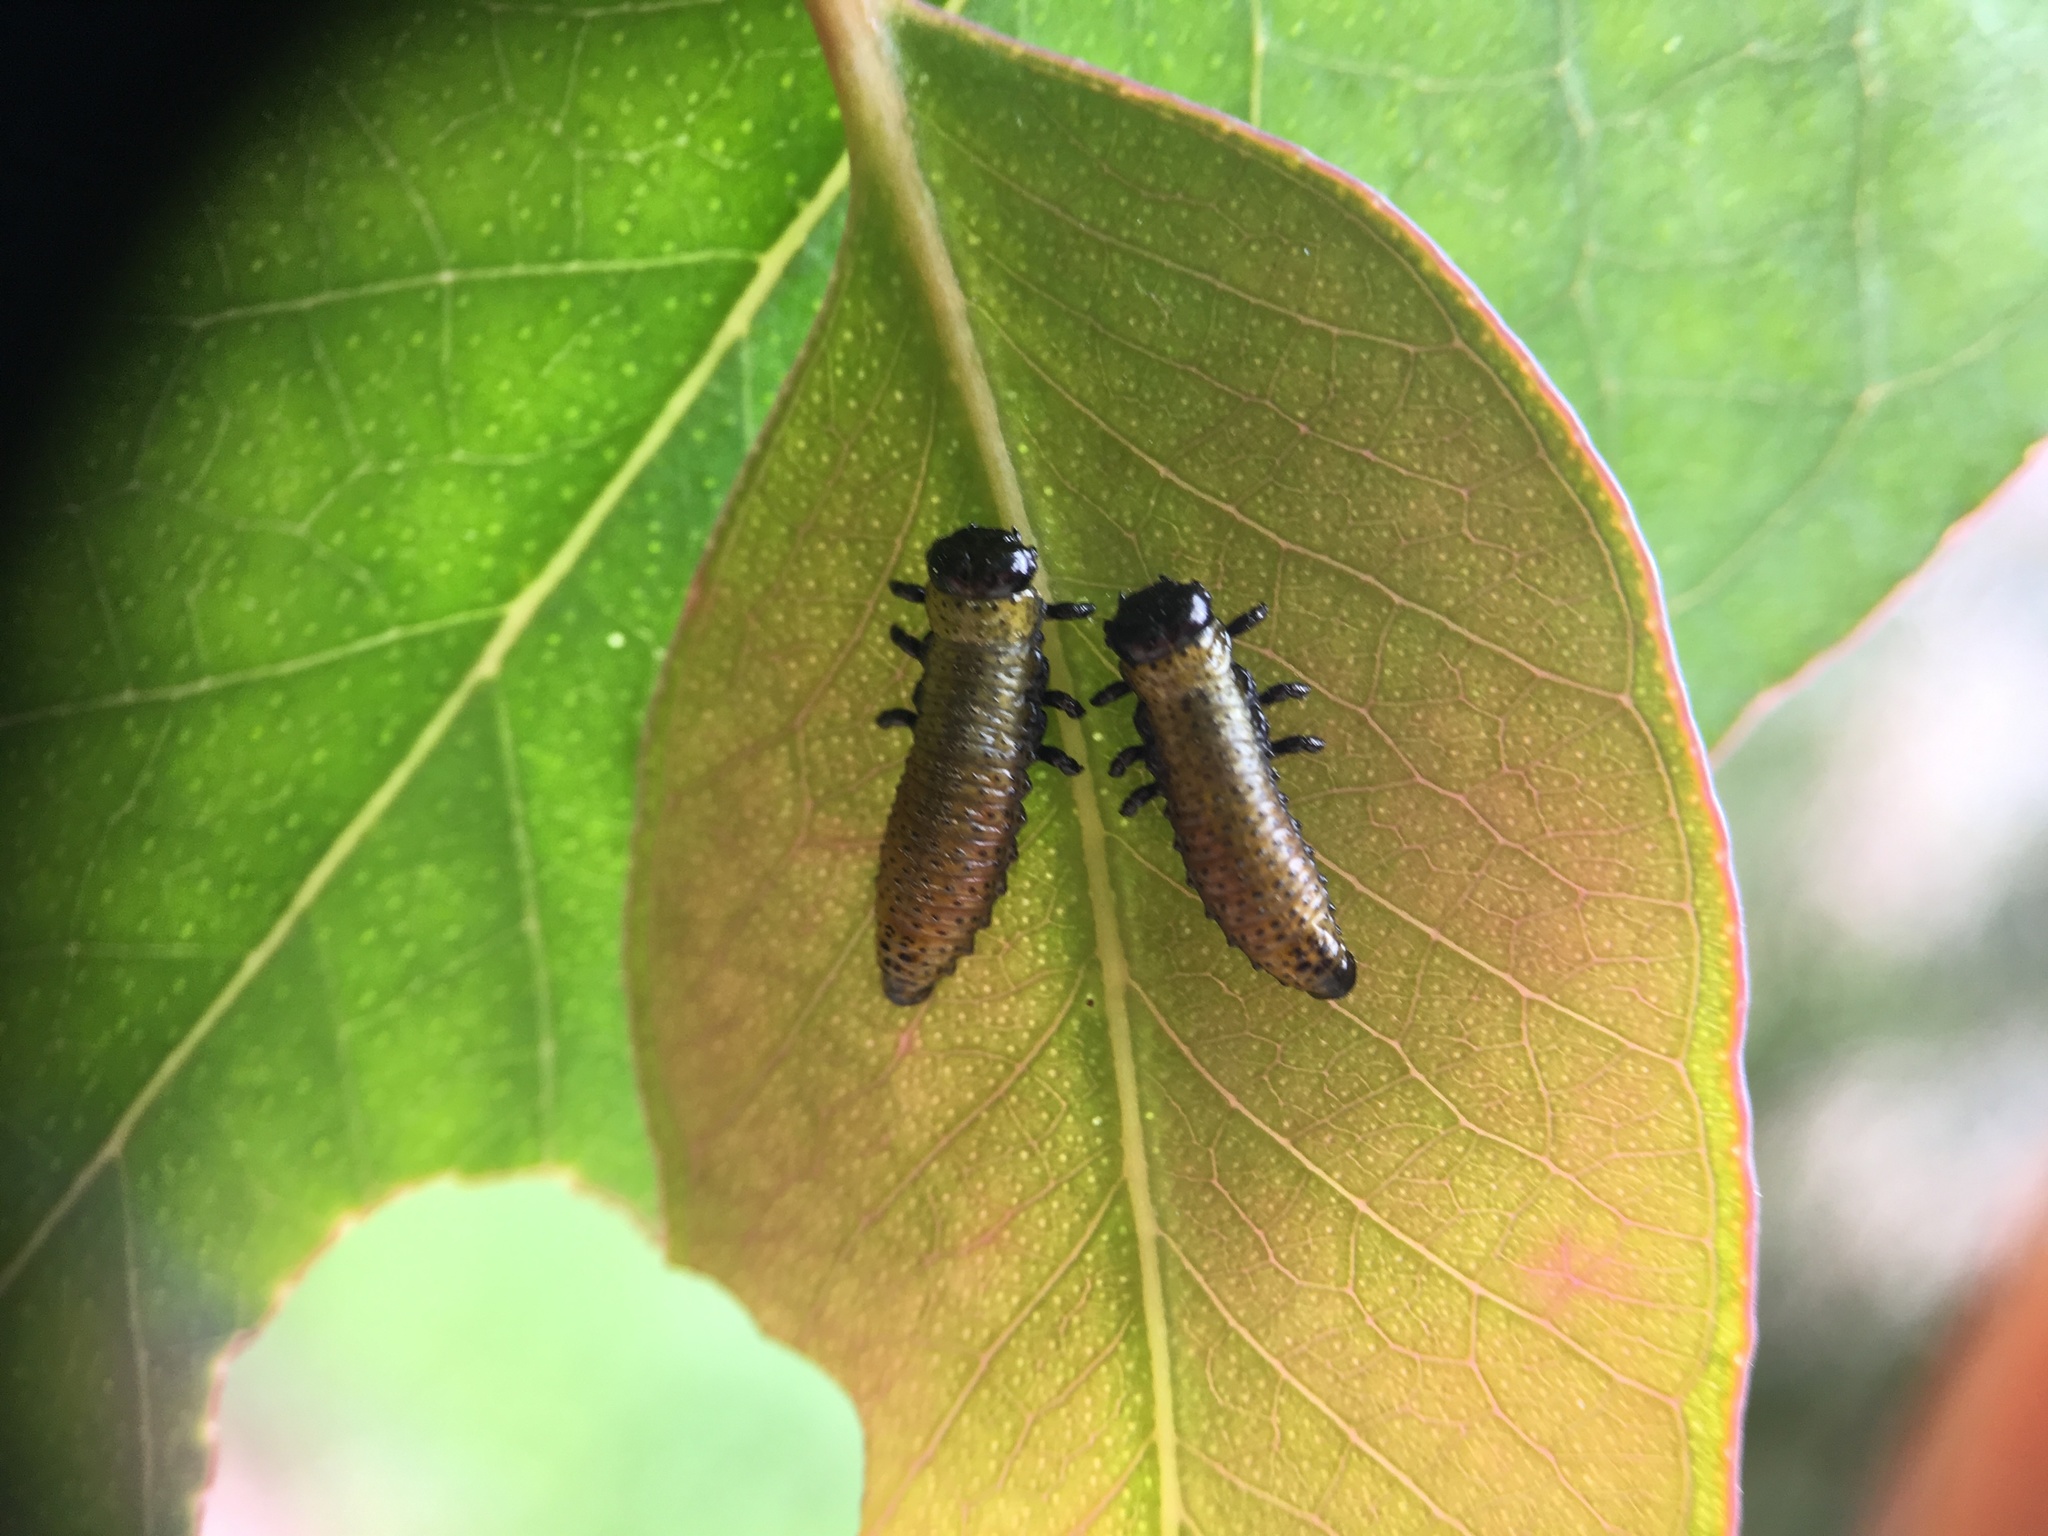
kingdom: Animalia
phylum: Arthropoda
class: Insecta
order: Coleoptera
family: Chrysomelidae
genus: Paropsis
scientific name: Paropsis charybdis
